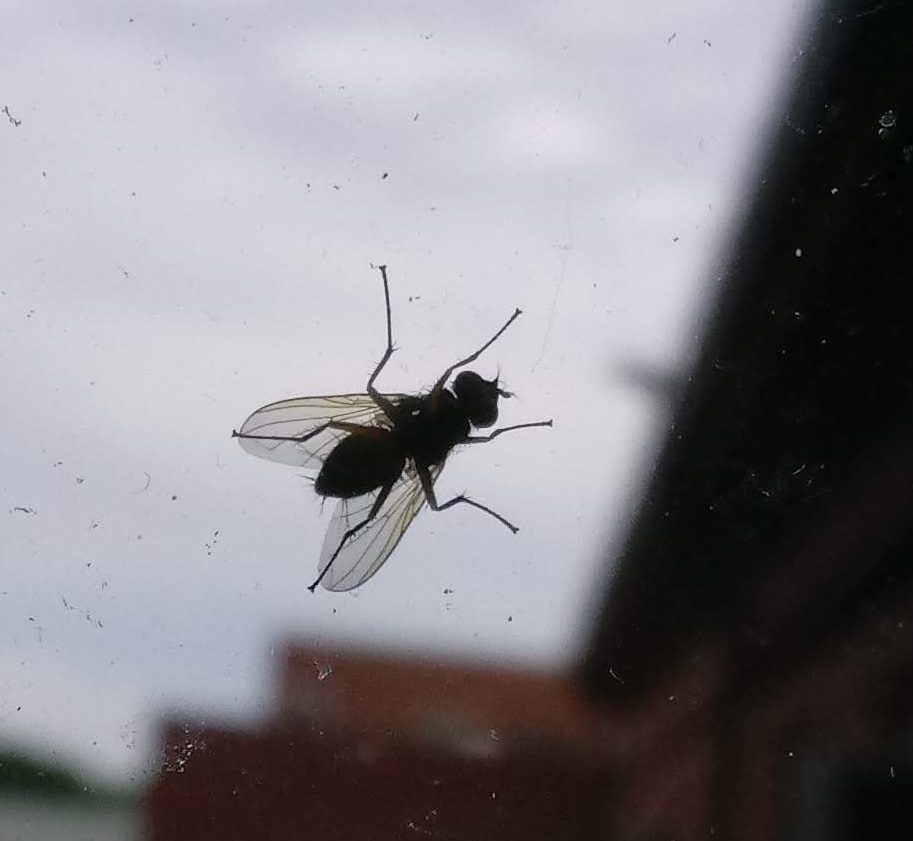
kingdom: Animalia
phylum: Arthropoda
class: Insecta
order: Diptera
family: Tachinidae
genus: Cholomyia
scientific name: Cholomyia inaequipes
